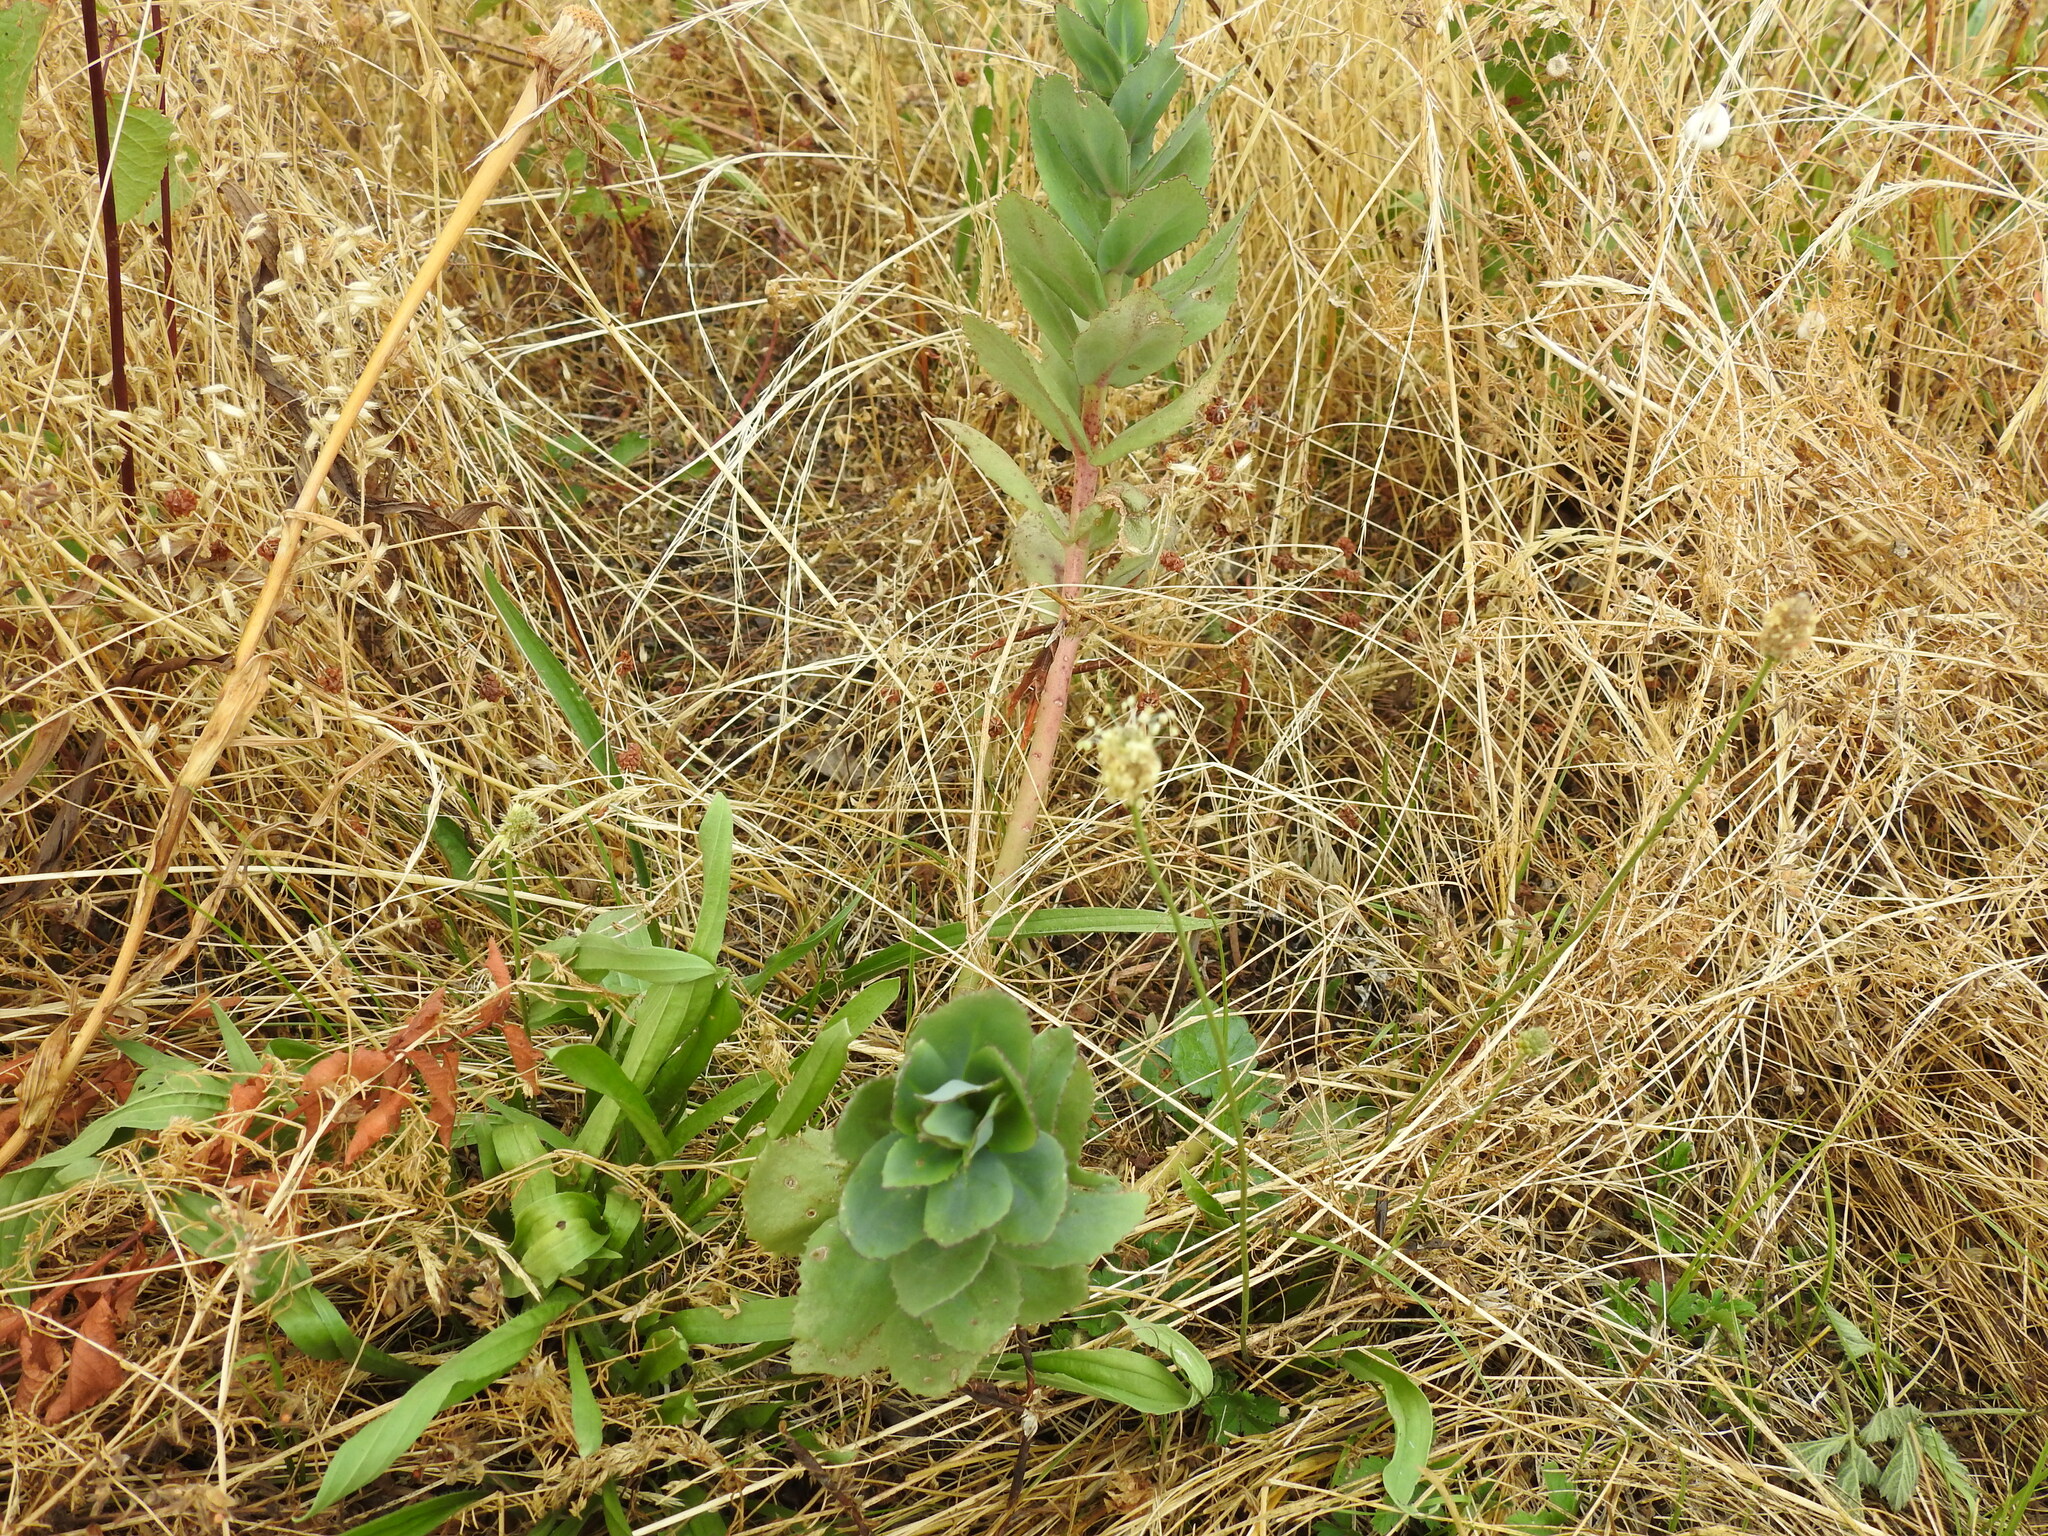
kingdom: Plantae
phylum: Tracheophyta
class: Magnoliopsida
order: Saxifragales
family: Crassulaceae
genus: Hylotelephium
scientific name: Hylotelephium maximum
